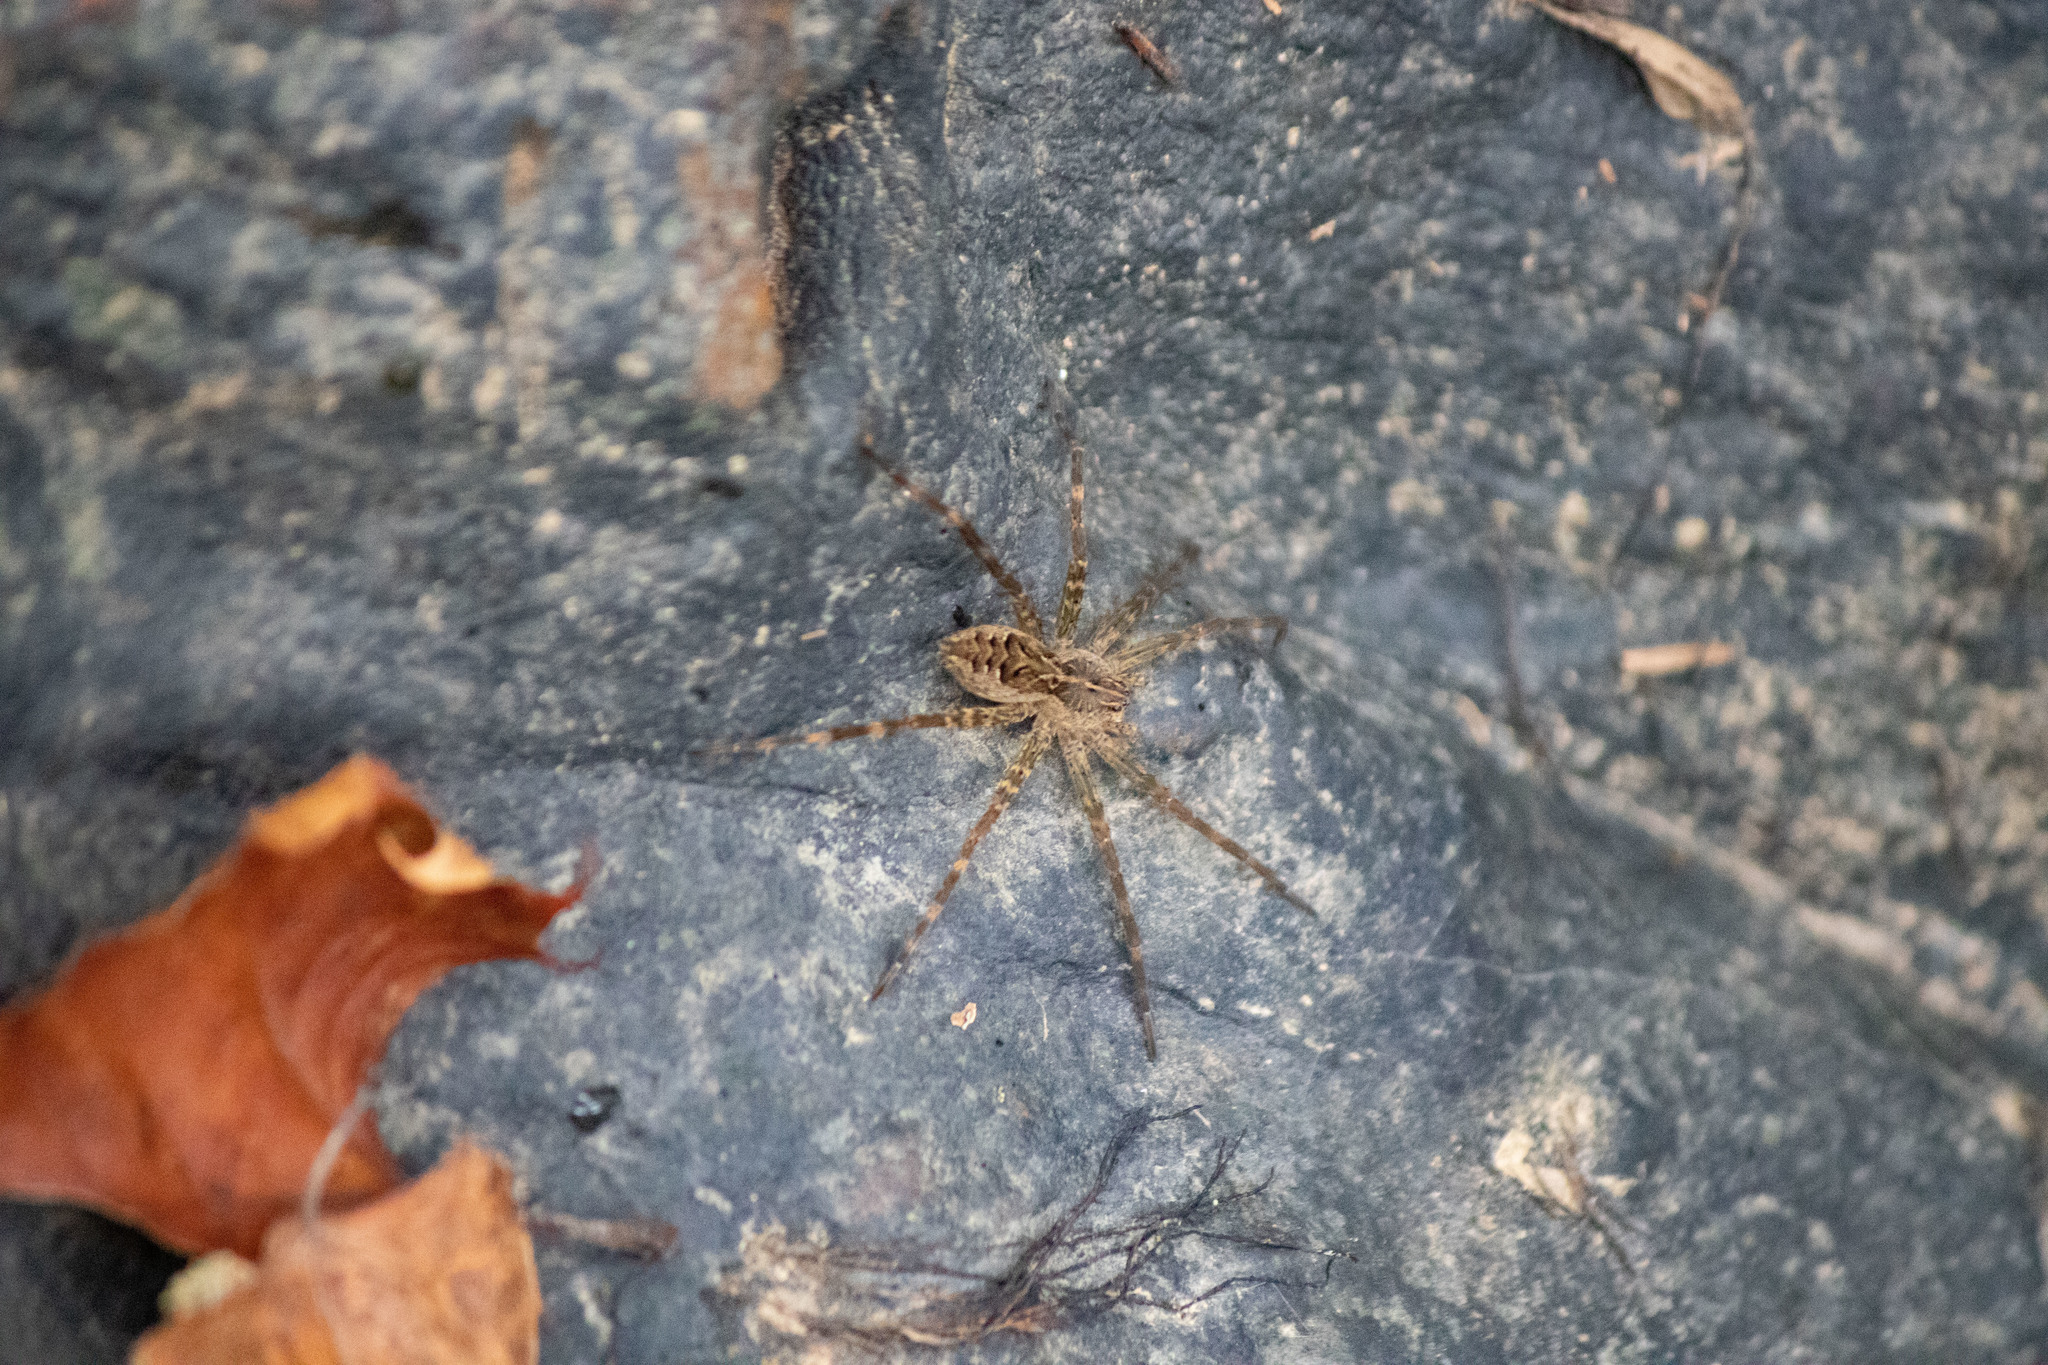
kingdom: Animalia
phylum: Arthropoda
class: Arachnida
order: Araneae
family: Pisauridae
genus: Dolomedes
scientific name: Dolomedes scriptus
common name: Striped fishing spider
